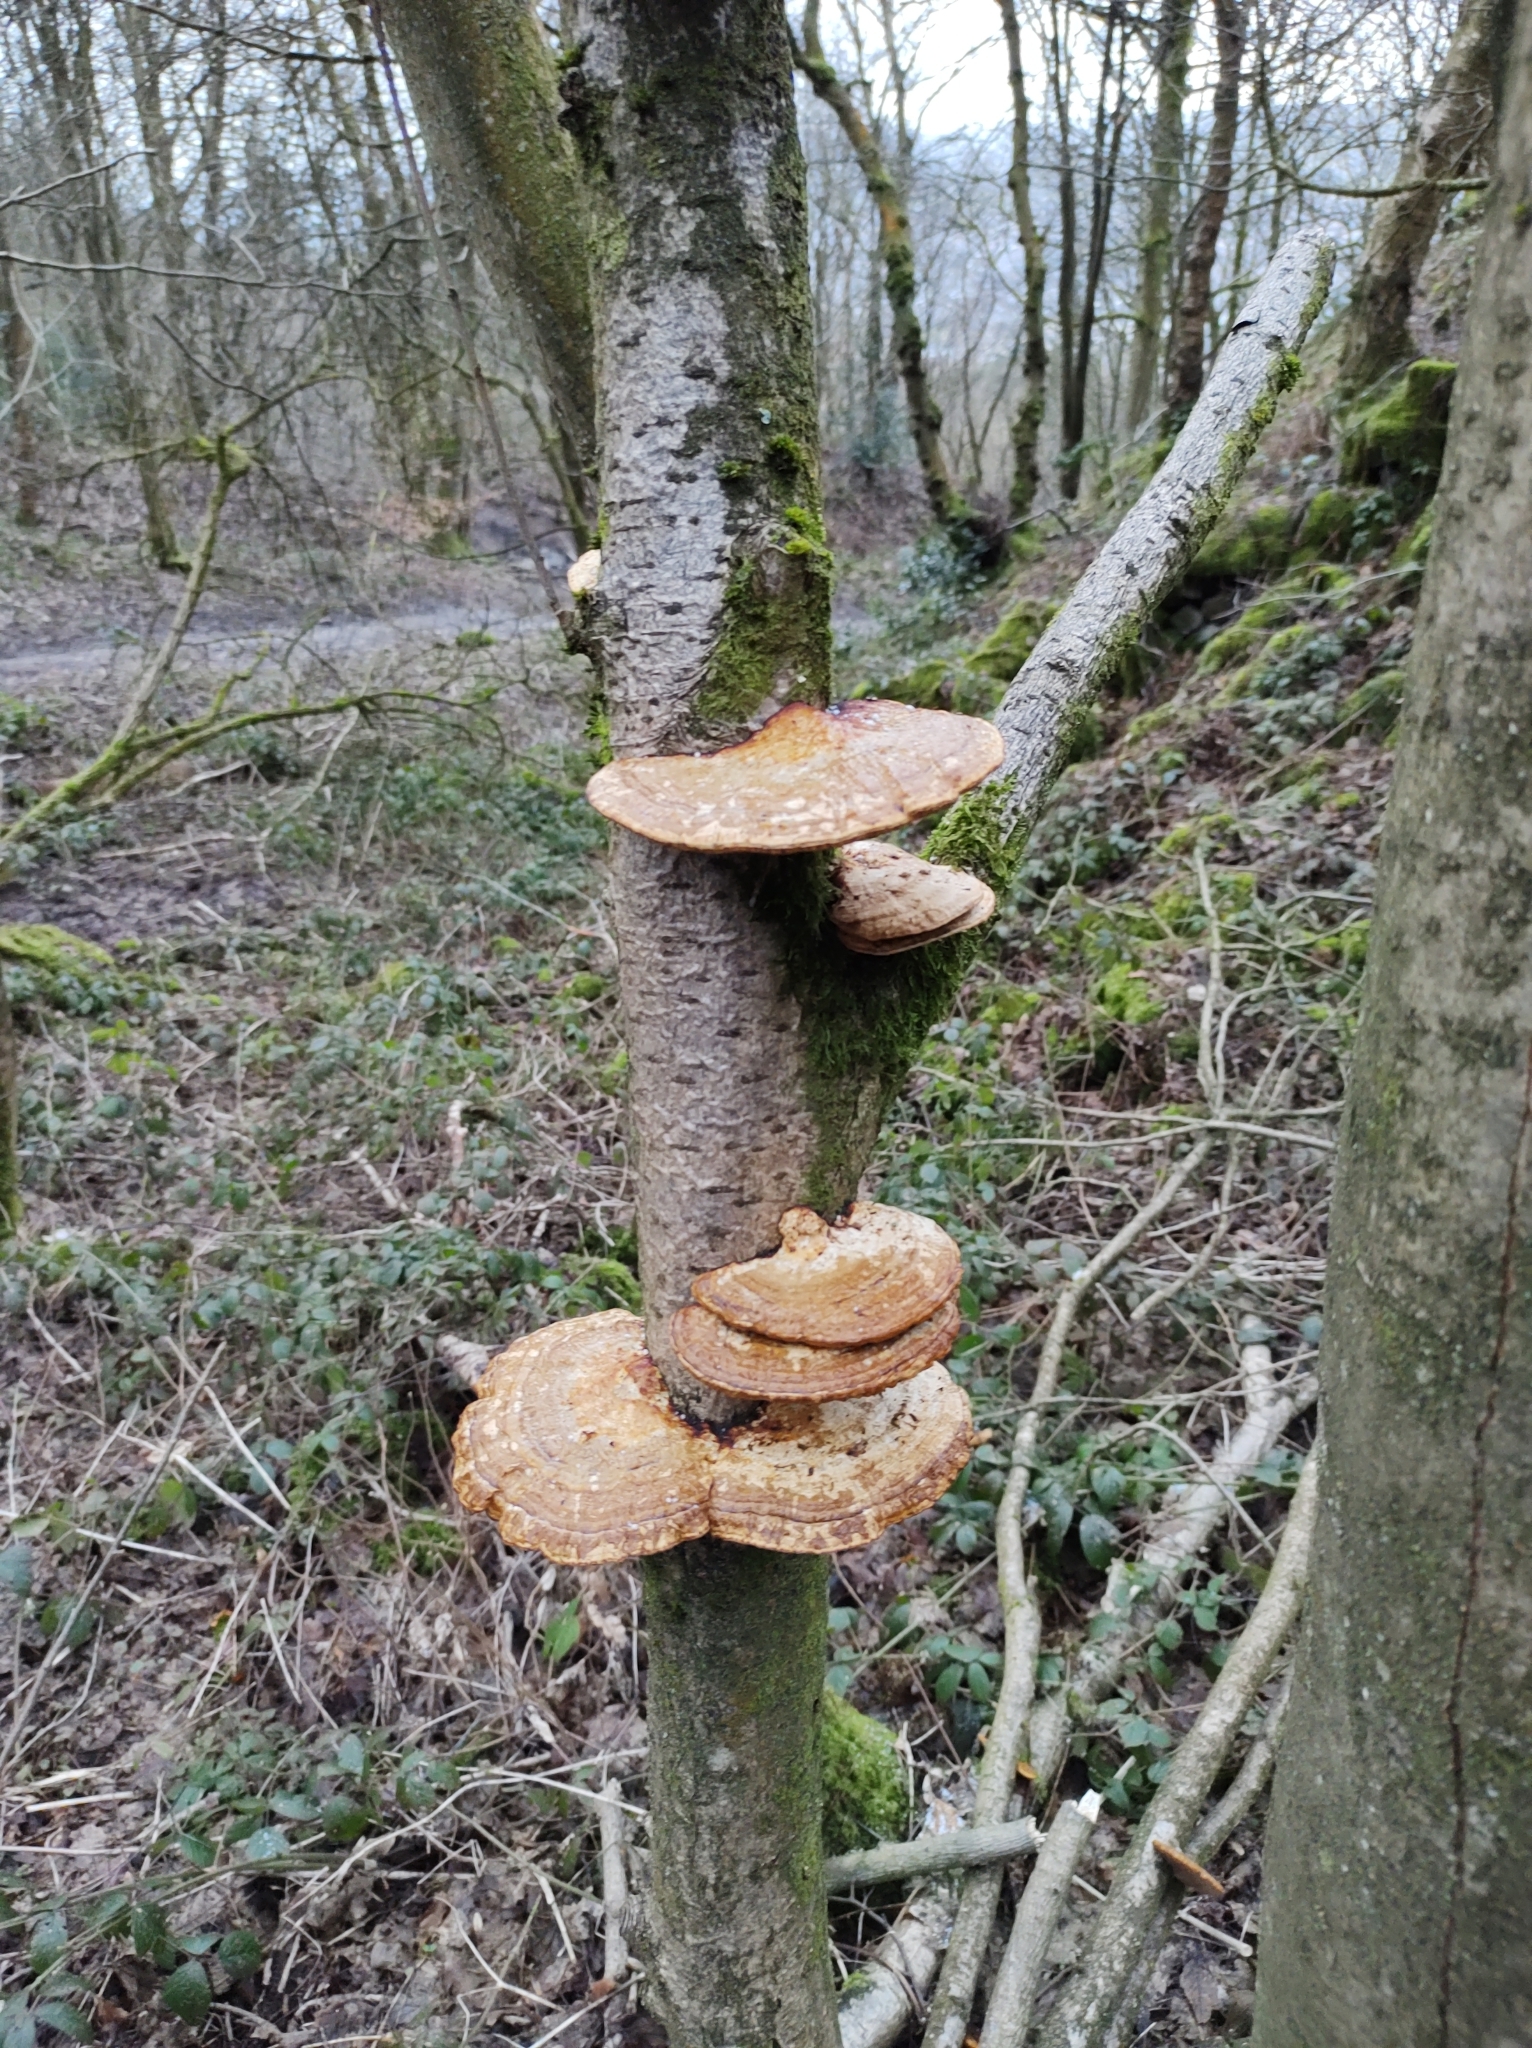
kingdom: Fungi
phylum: Basidiomycota
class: Agaricomycetes
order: Polyporales
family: Polyporaceae
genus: Daedaleopsis
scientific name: Daedaleopsis confragosa
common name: Blushing bracket
